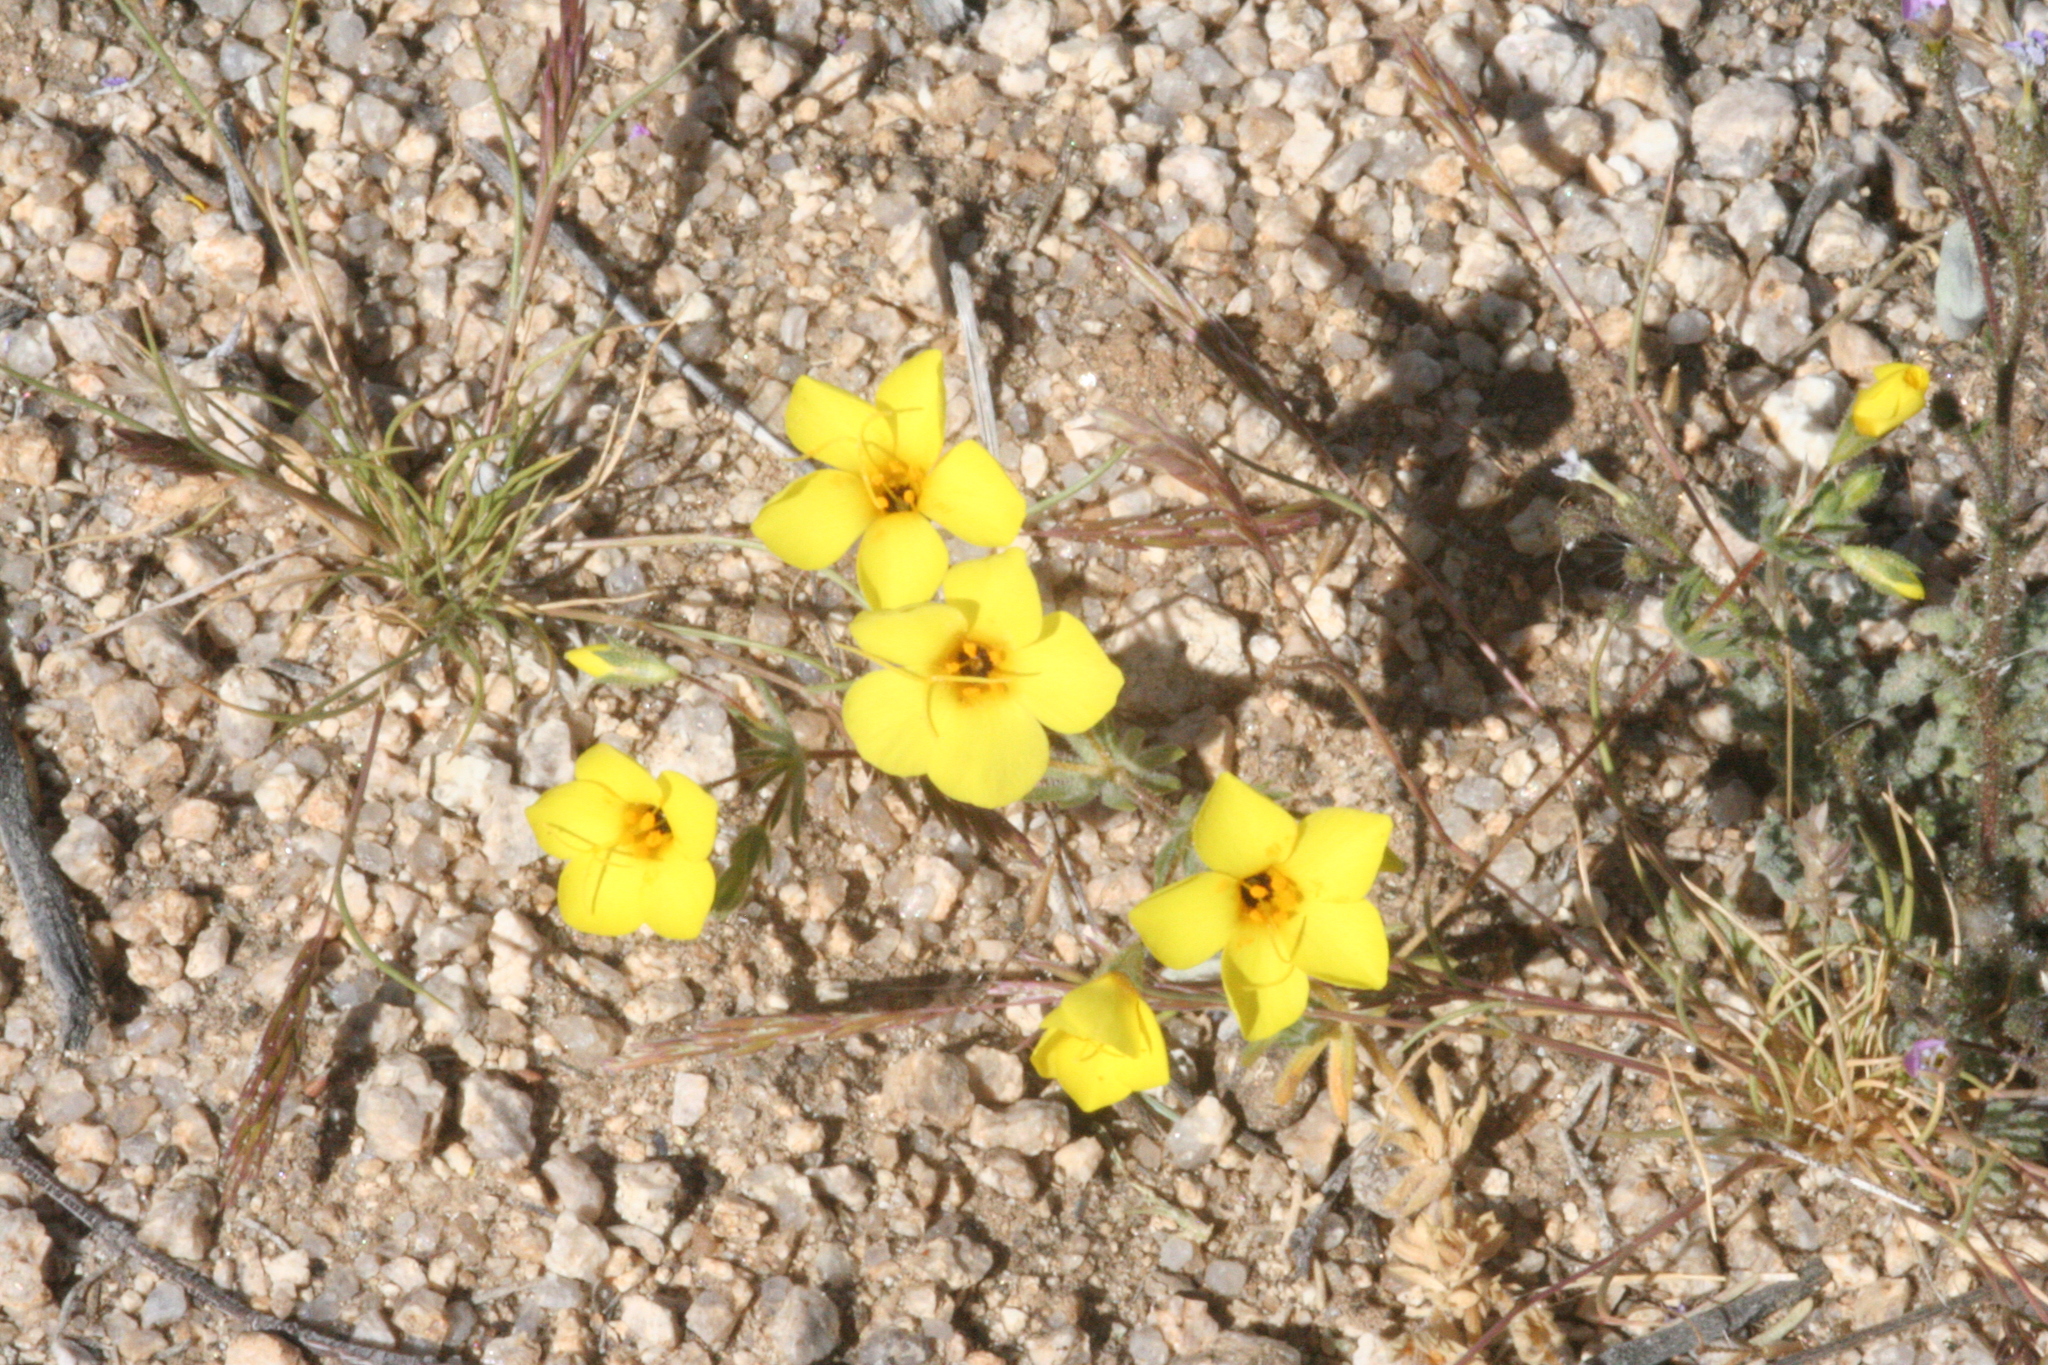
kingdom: Plantae
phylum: Tracheophyta
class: Magnoliopsida
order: Ericales
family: Polemoniaceae
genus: Leptosiphon
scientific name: Leptosiphon chrysanthus
